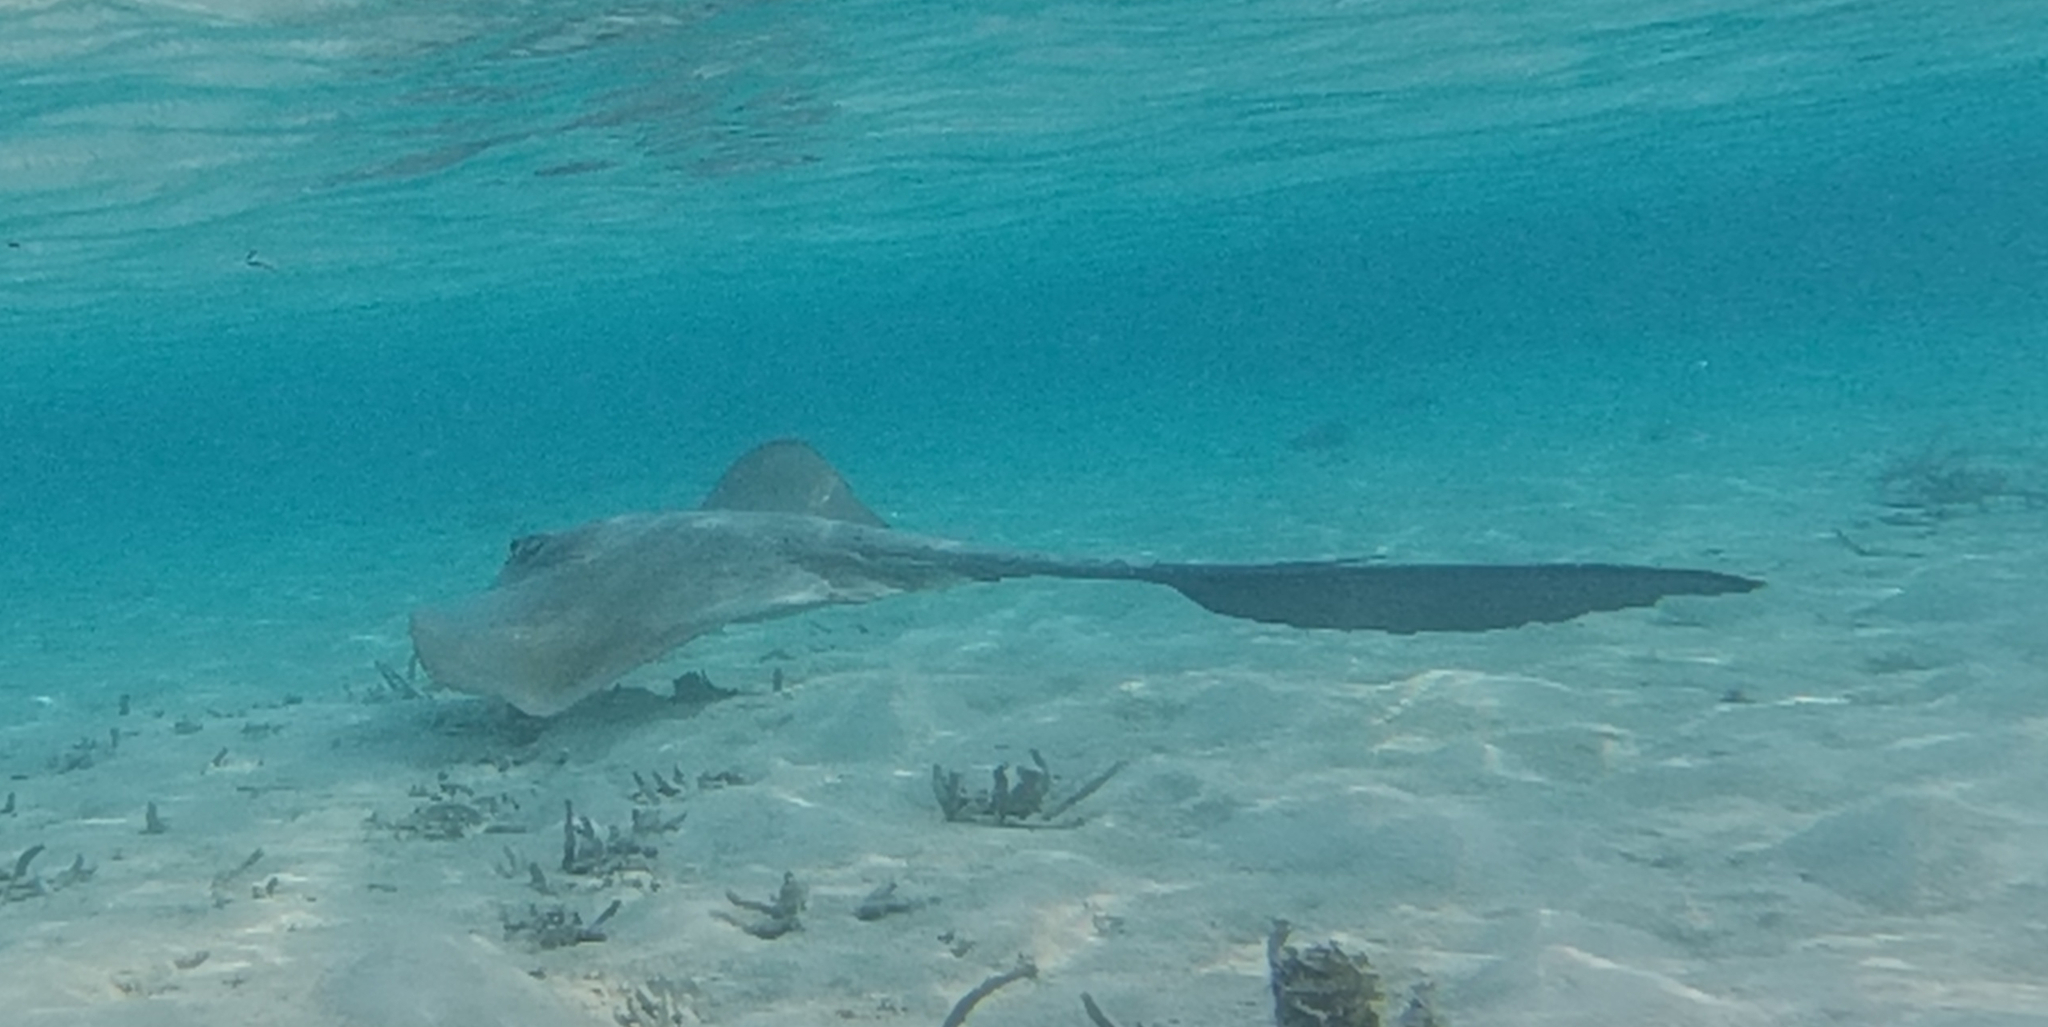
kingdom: Animalia
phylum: Chordata
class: Elasmobranchii
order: Myliobatiformes
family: Dasyatidae
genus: Pastinachus
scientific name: Pastinachus ater
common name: Banana-tail ray
